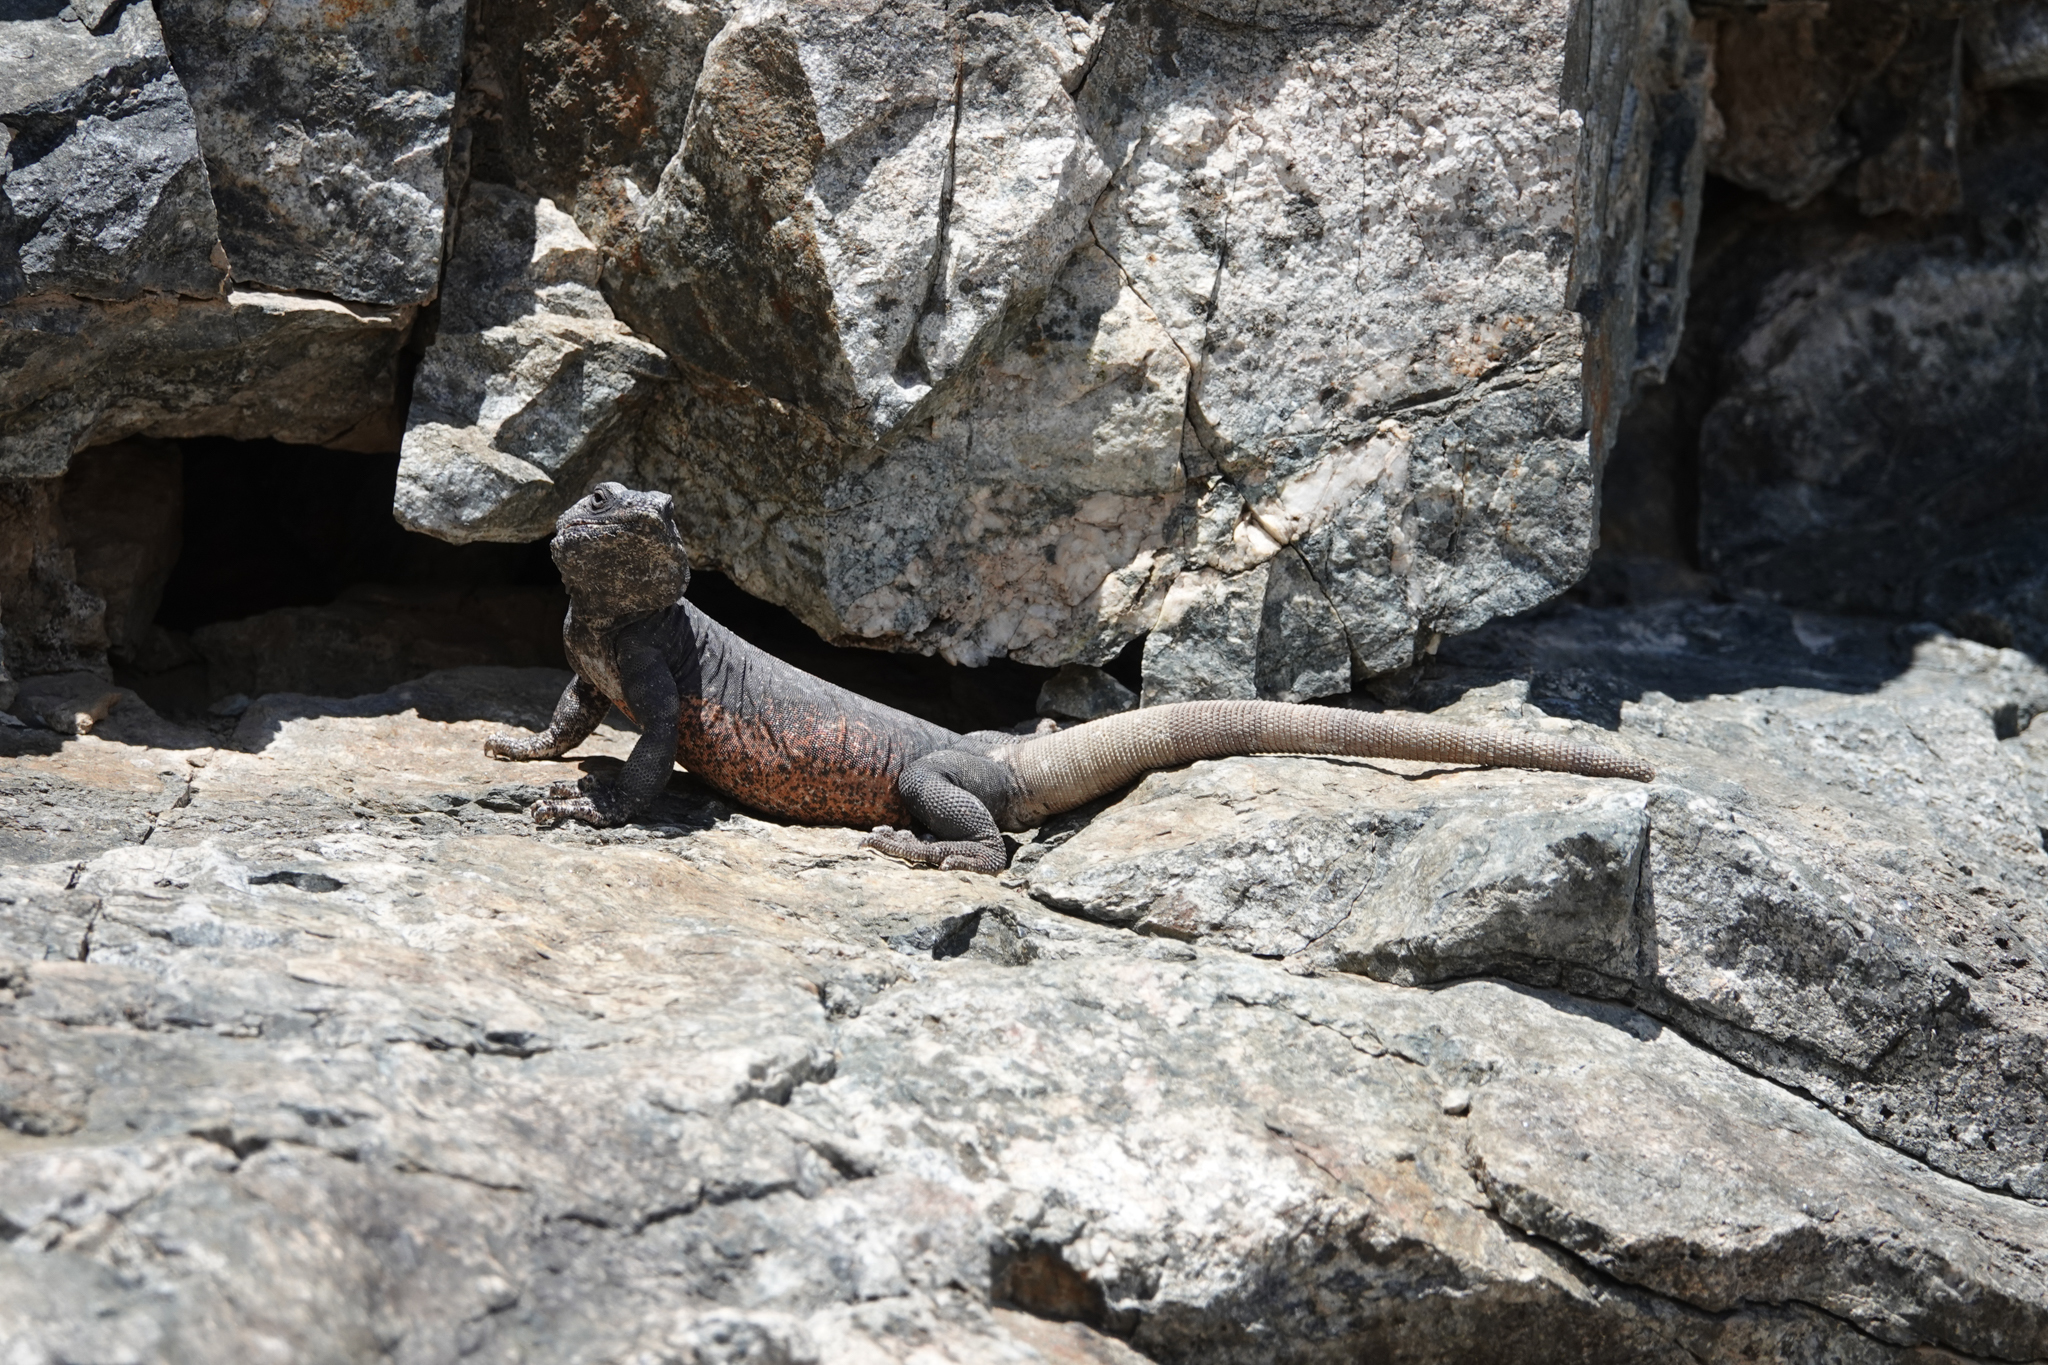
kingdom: Animalia
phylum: Chordata
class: Squamata
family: Iguanidae
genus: Sauromalus
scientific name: Sauromalus ater
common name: Northern chuckwalla
